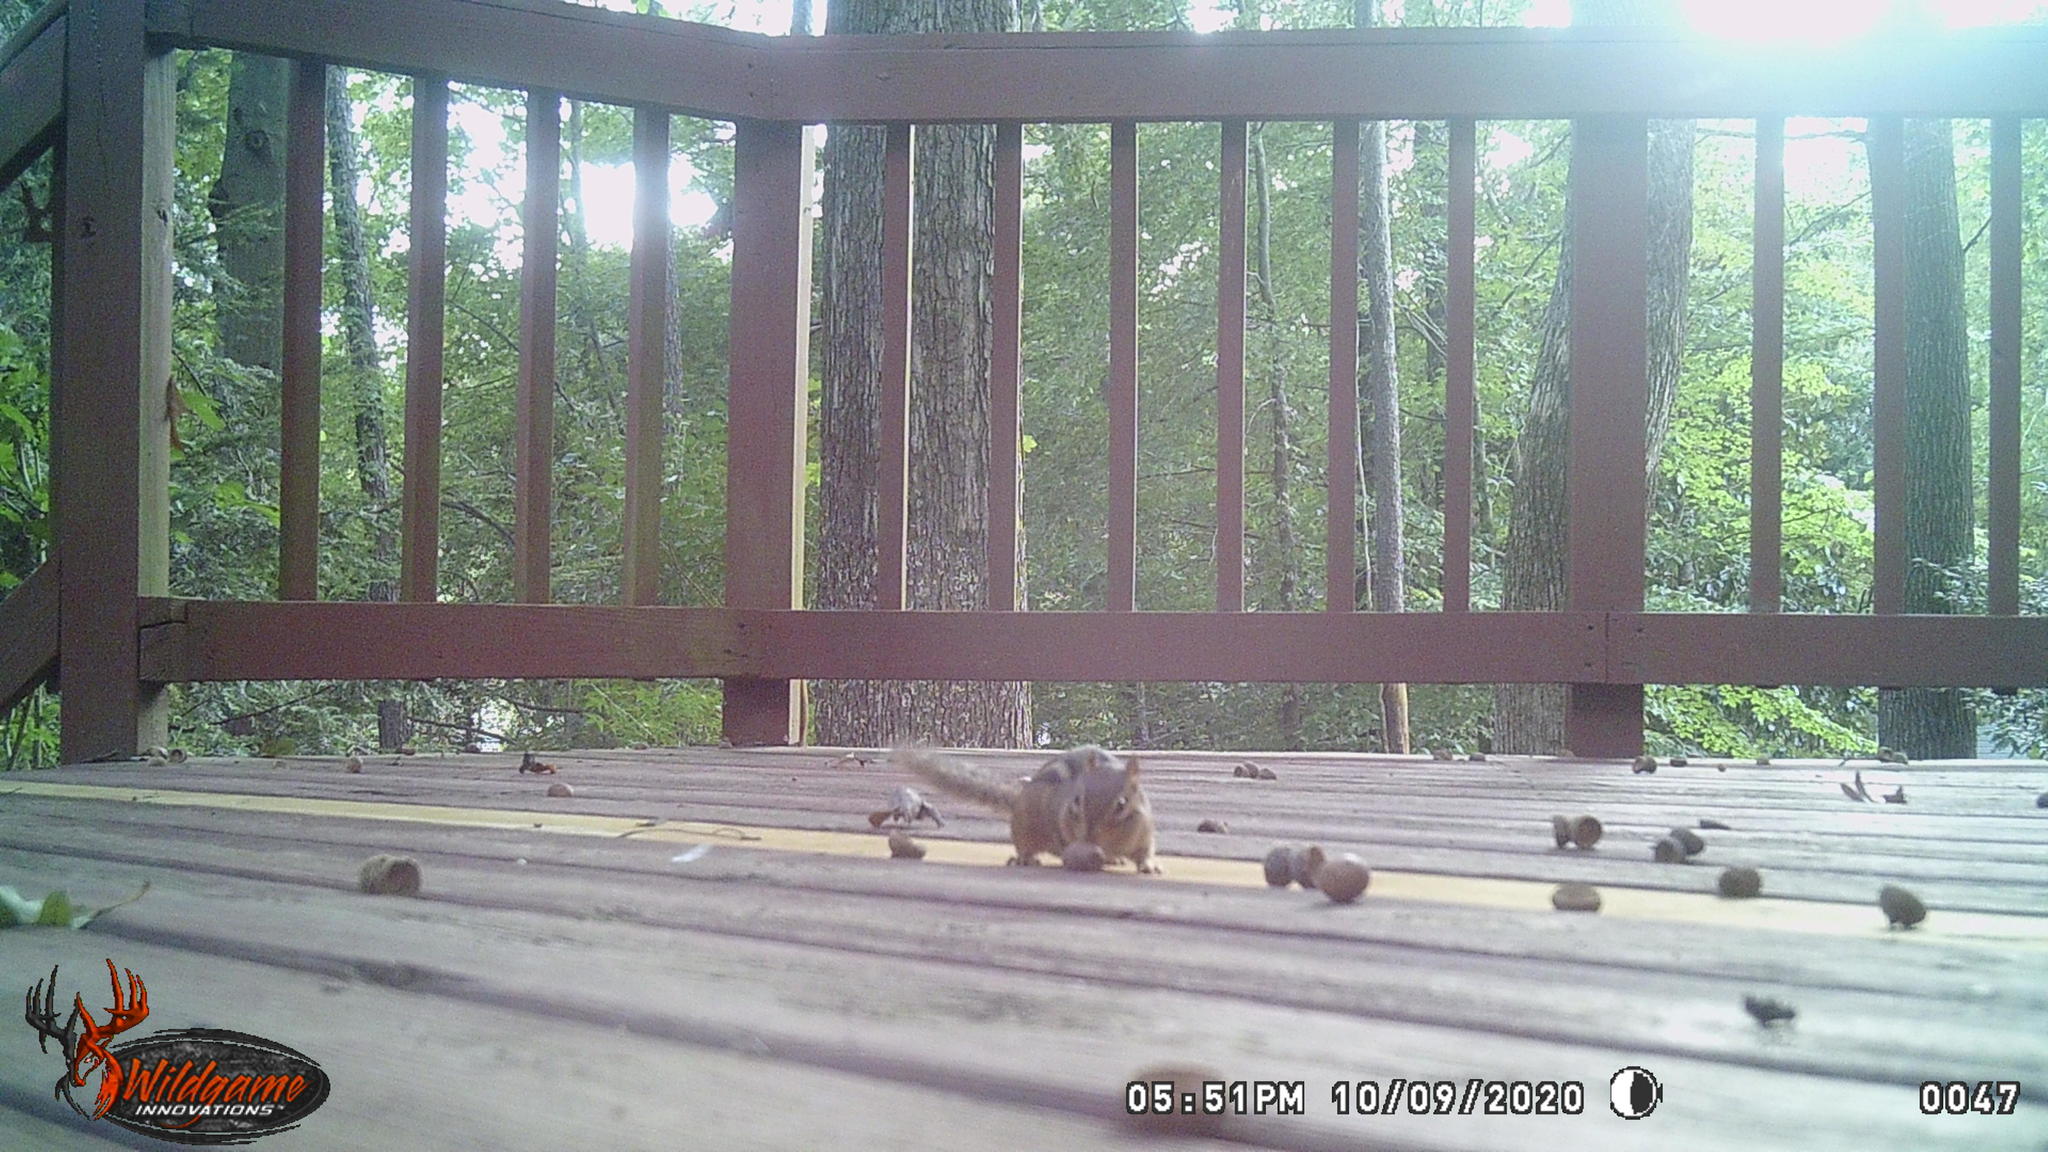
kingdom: Animalia
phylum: Chordata
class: Mammalia
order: Rodentia
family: Sciuridae
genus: Tamias
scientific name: Tamias striatus
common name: Eastern chipmunk
